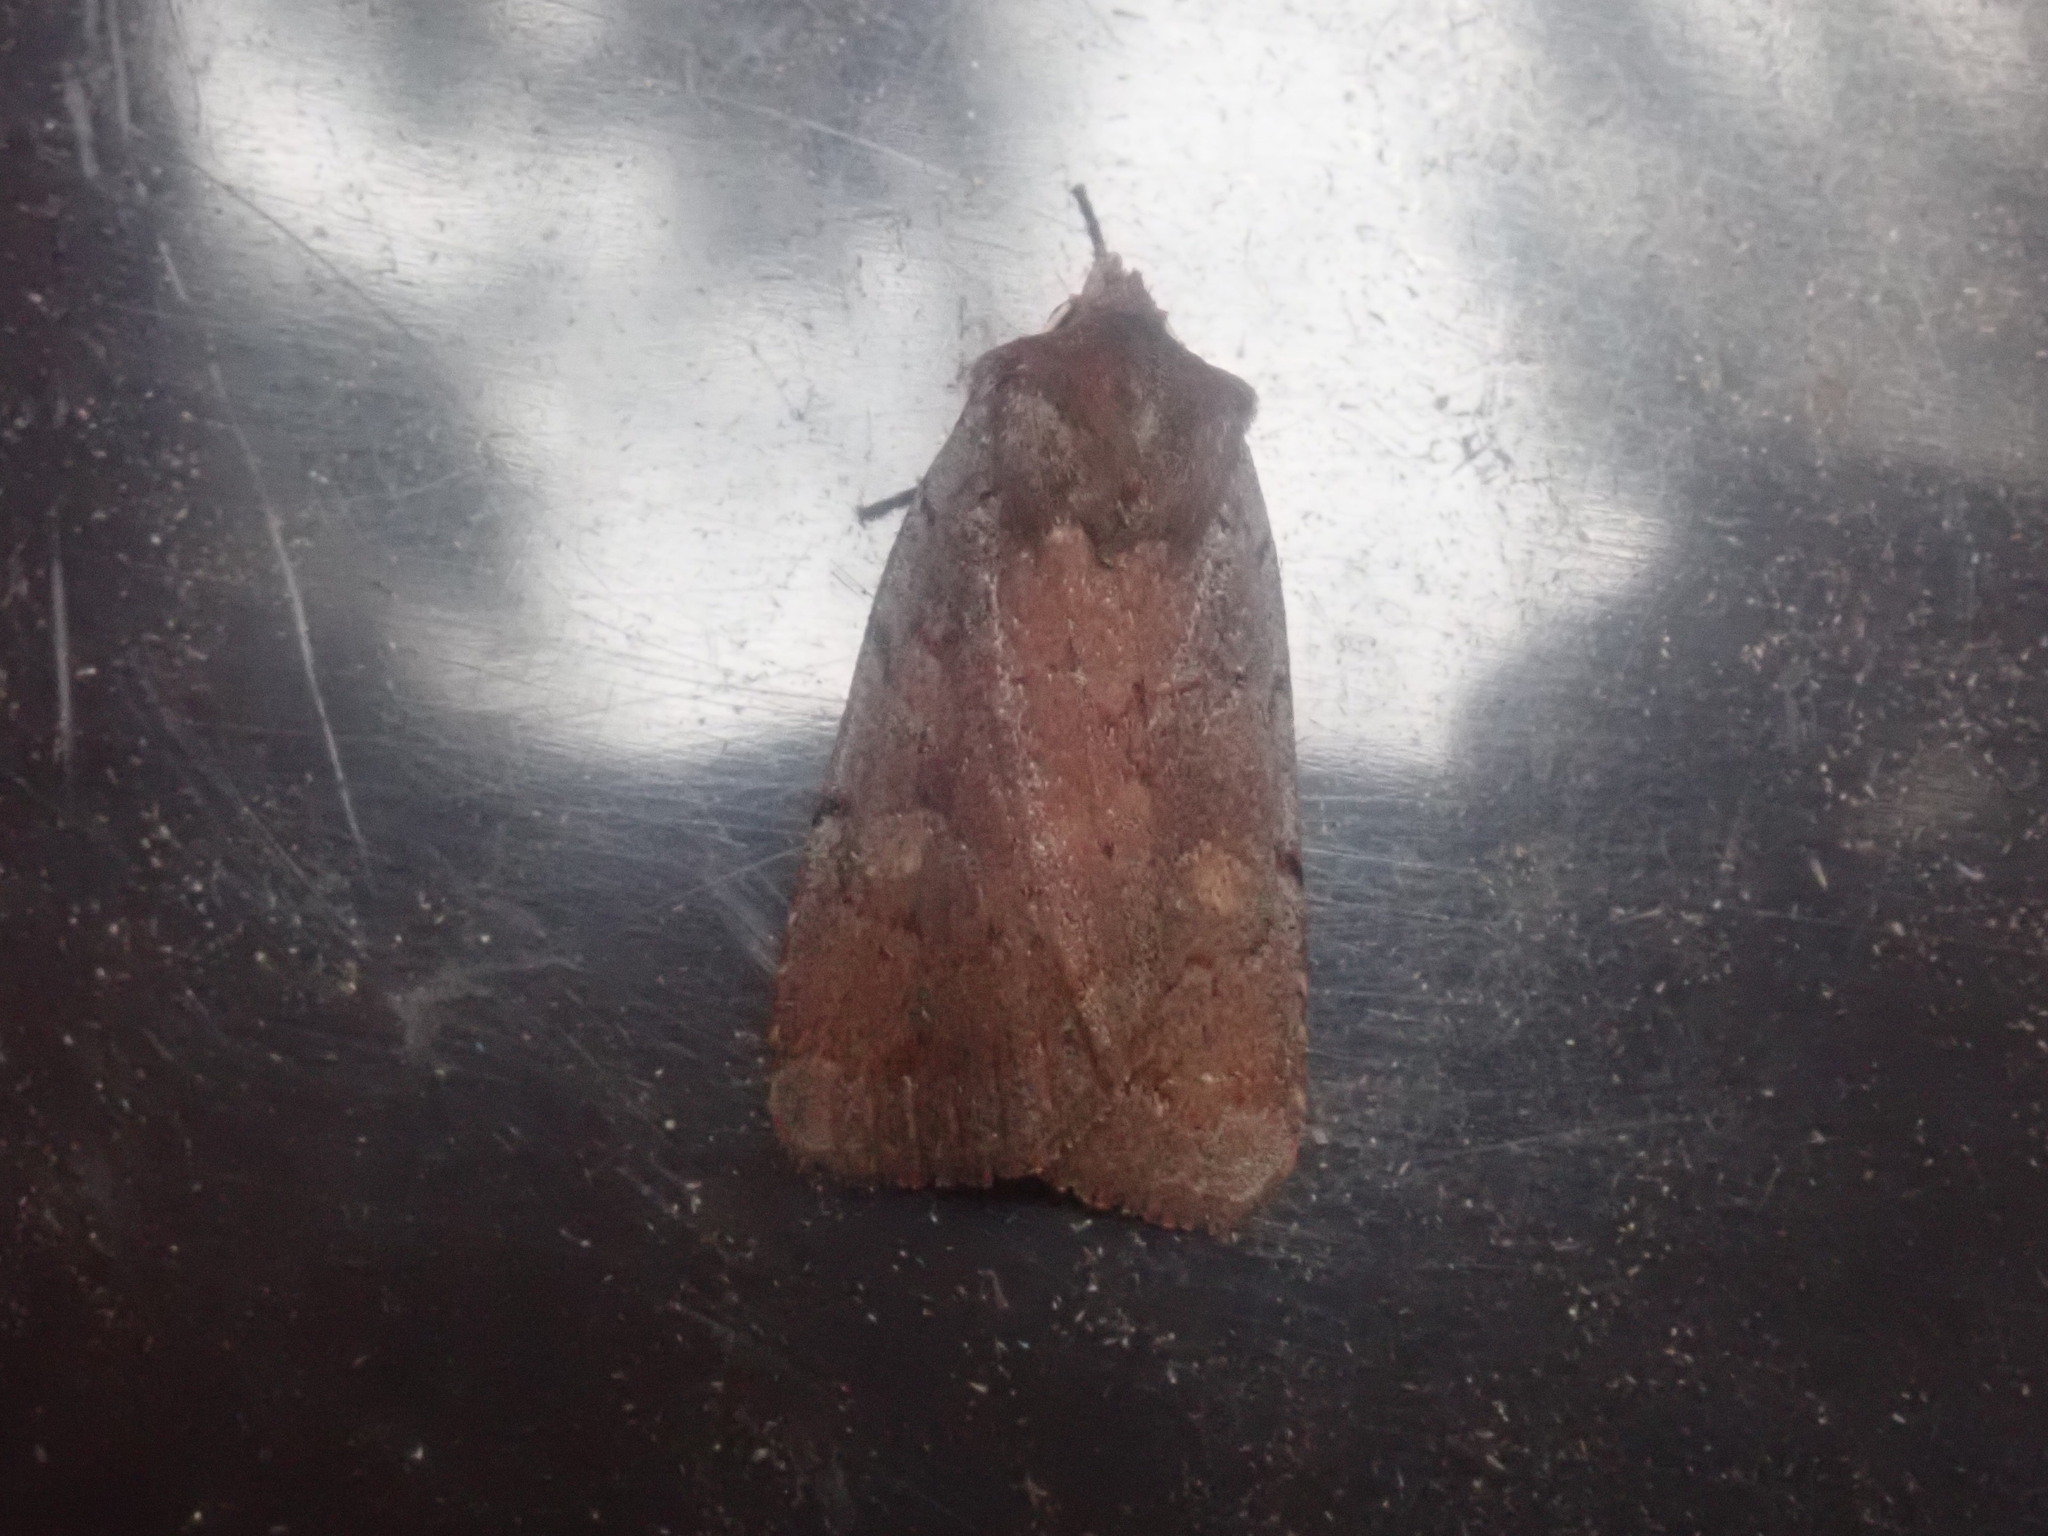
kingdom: Animalia
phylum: Arthropoda
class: Insecta
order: Lepidoptera
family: Noctuidae
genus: Xestia
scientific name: Xestia dilucida
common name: Dull reddish dart
